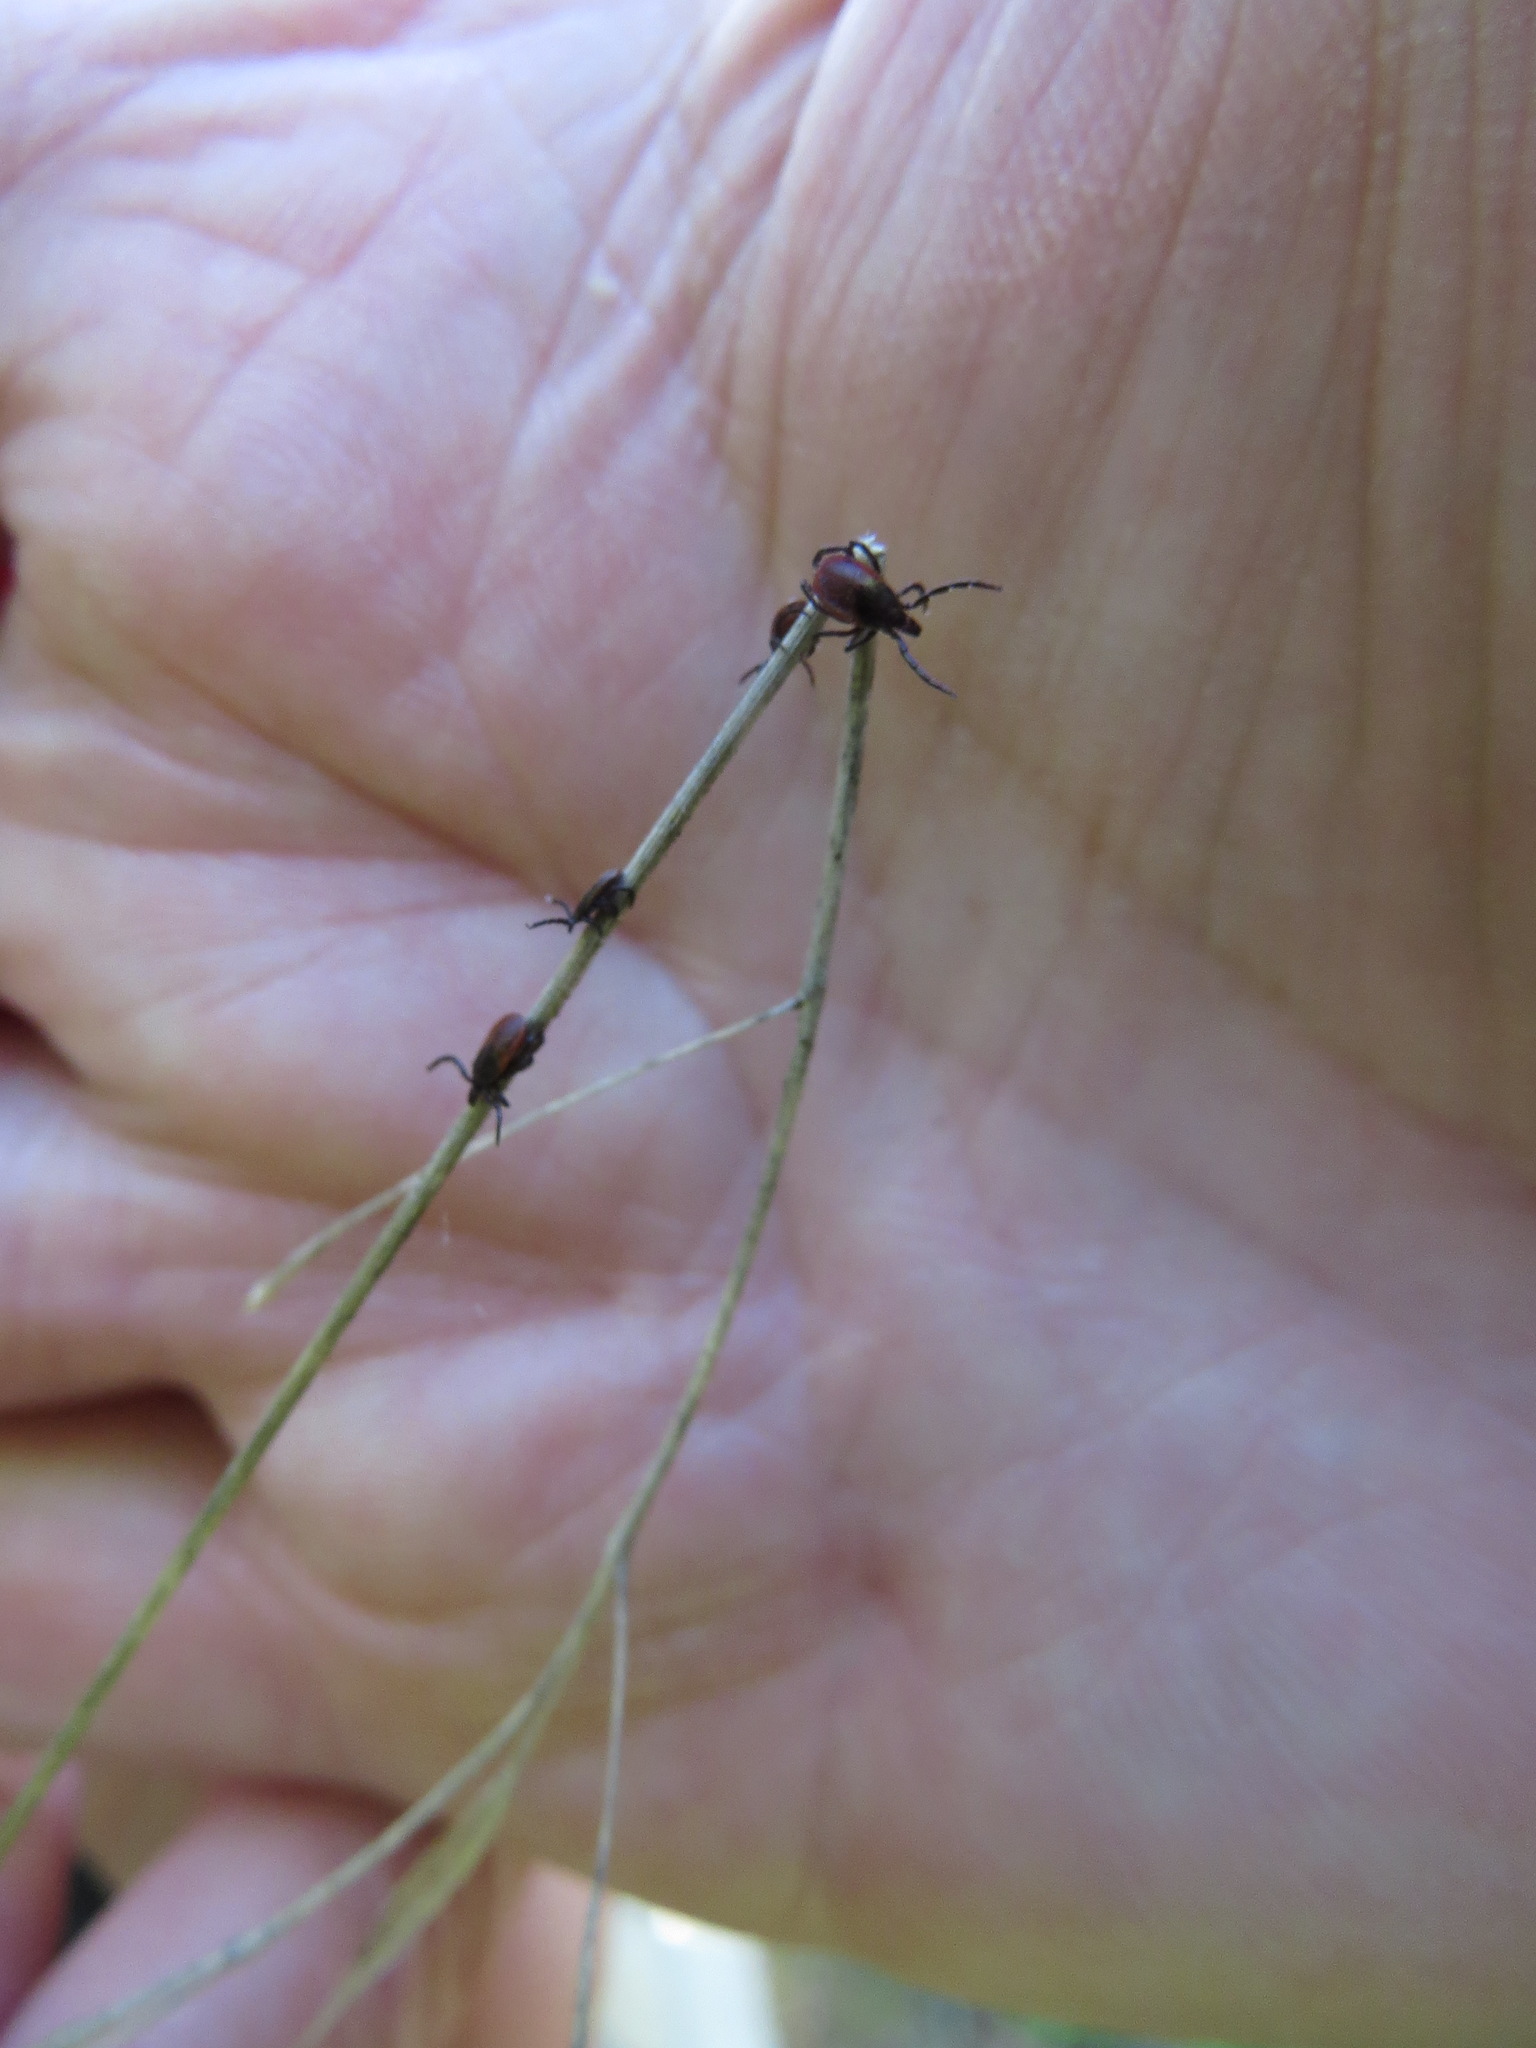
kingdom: Animalia
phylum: Arthropoda
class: Arachnida
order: Ixodida
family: Ixodidae
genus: Ixodes
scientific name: Ixodes pacificus
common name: California black-legged tick
